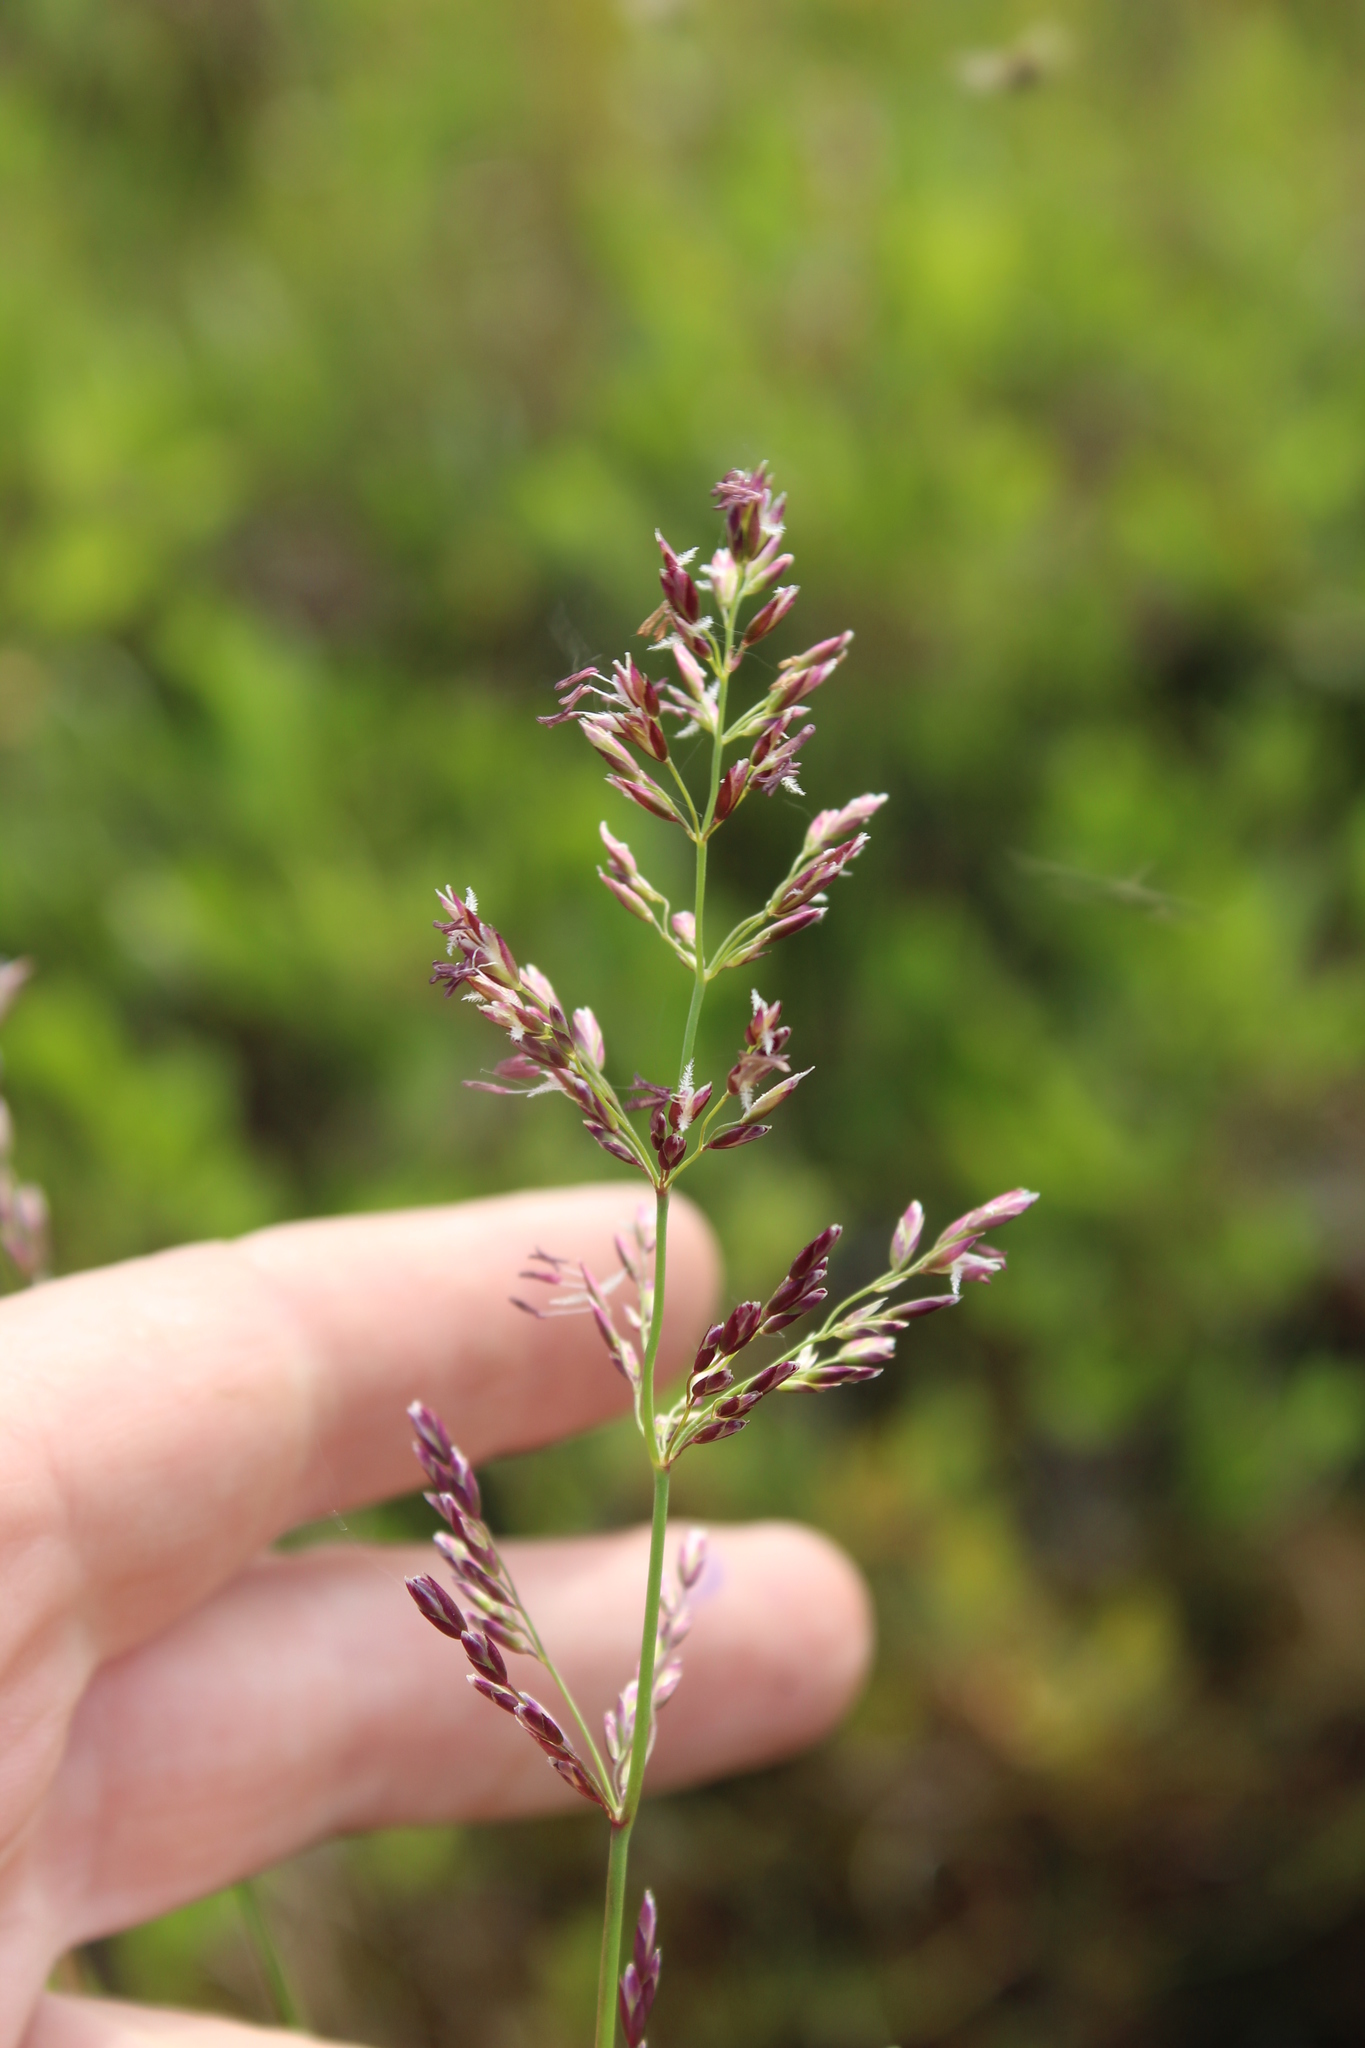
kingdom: Plantae
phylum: Tracheophyta
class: Liliopsida
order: Poales
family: Poaceae
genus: Arctagrostis
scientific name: Arctagrostis latifolia
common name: Arctic grass
